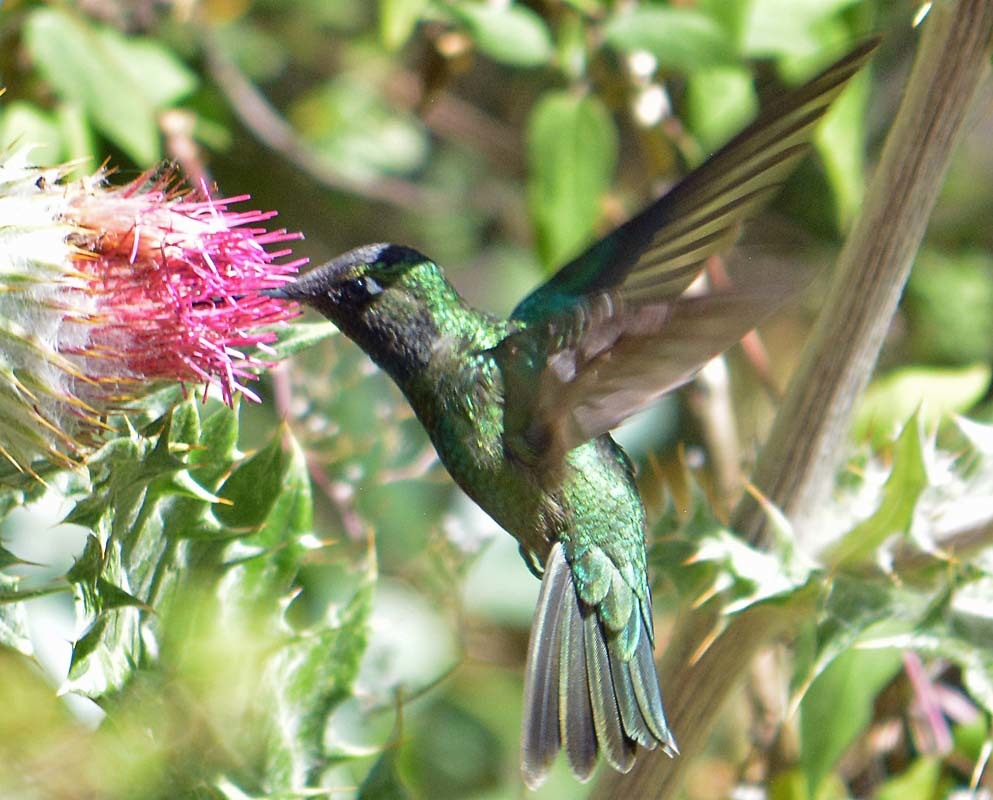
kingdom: Animalia
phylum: Chordata
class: Aves
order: Apodiformes
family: Trochilidae
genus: Eugenes
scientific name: Eugenes fulgens
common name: Magnificent hummingbird
